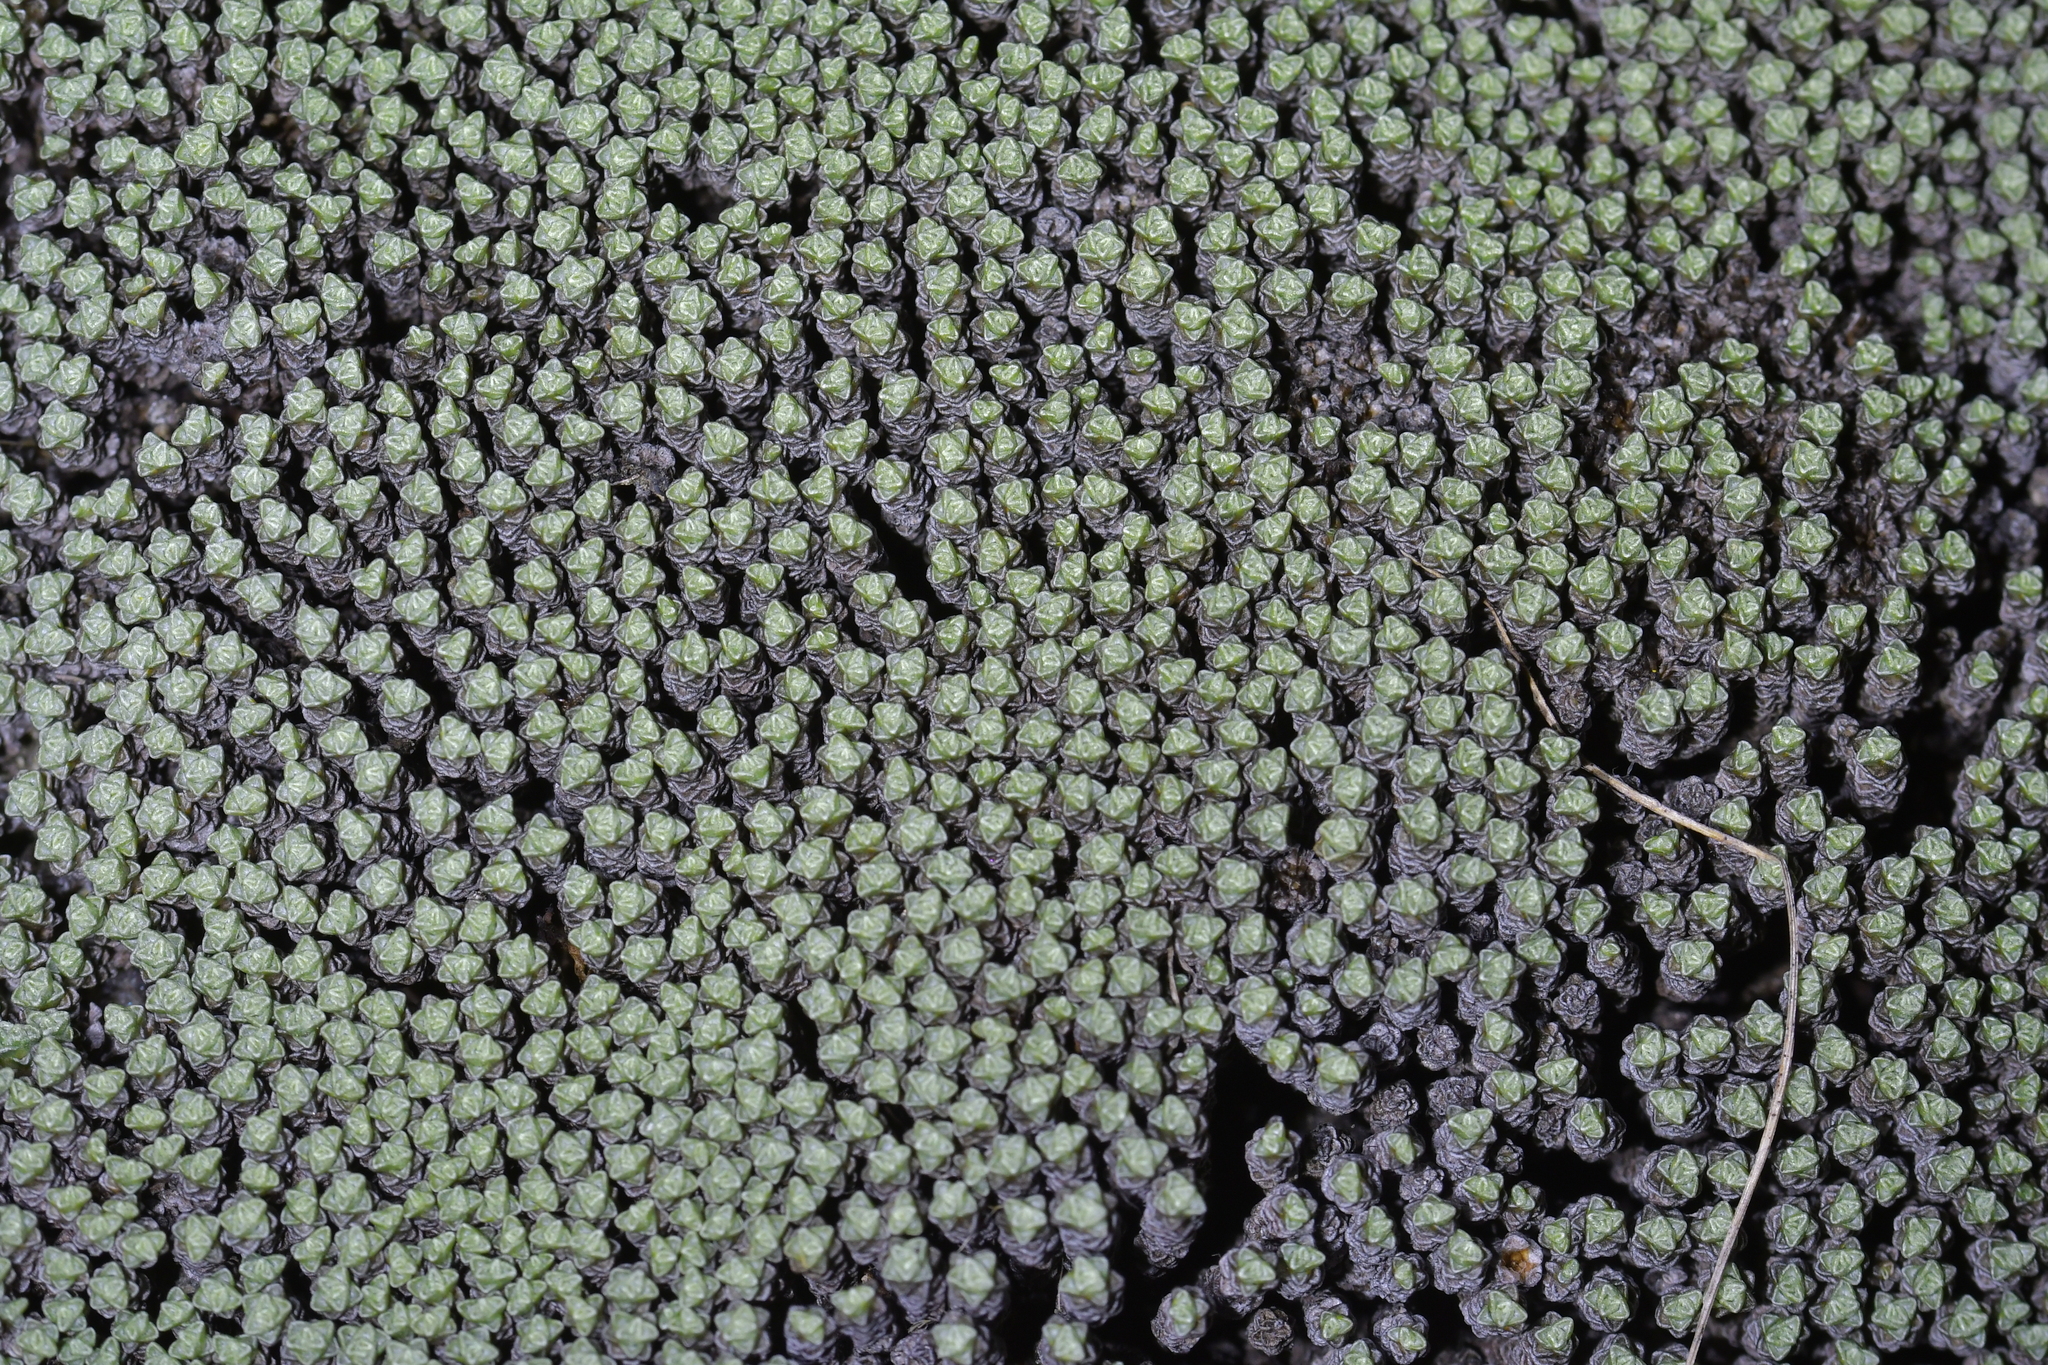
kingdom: Plantae
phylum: Tracheophyta
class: Magnoliopsida
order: Asterales
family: Asteraceae
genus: Raoulia
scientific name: Raoulia australis
